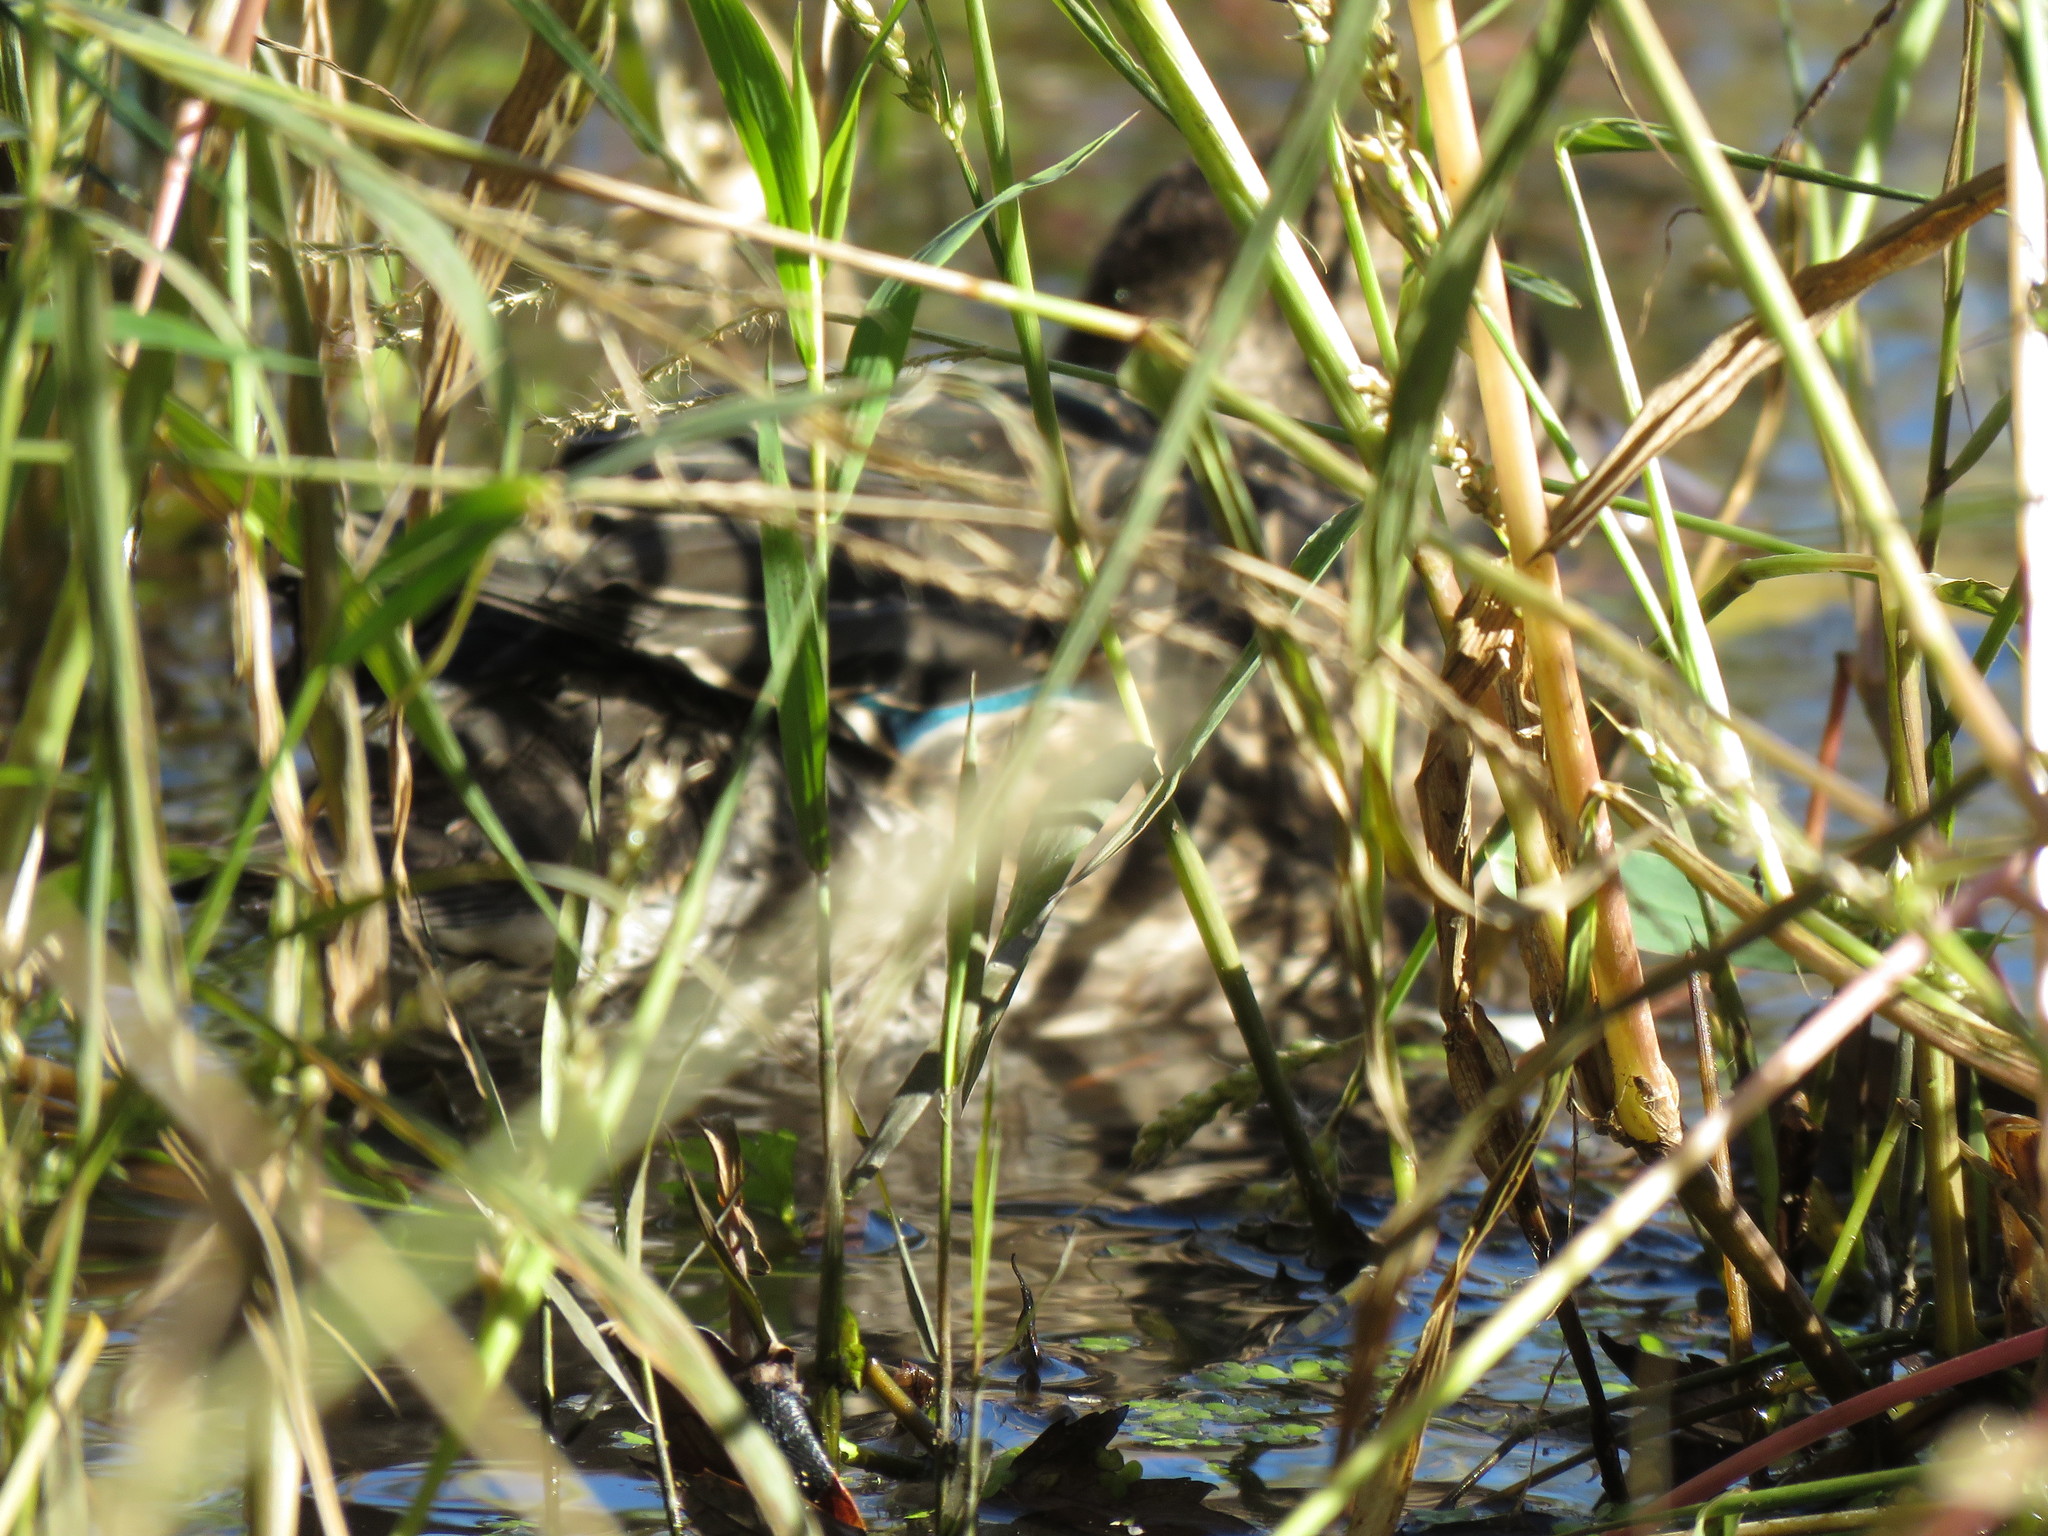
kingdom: Animalia
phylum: Chordata
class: Aves
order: Anseriformes
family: Anatidae
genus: Anas
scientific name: Anas crecca
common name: Eurasian teal
